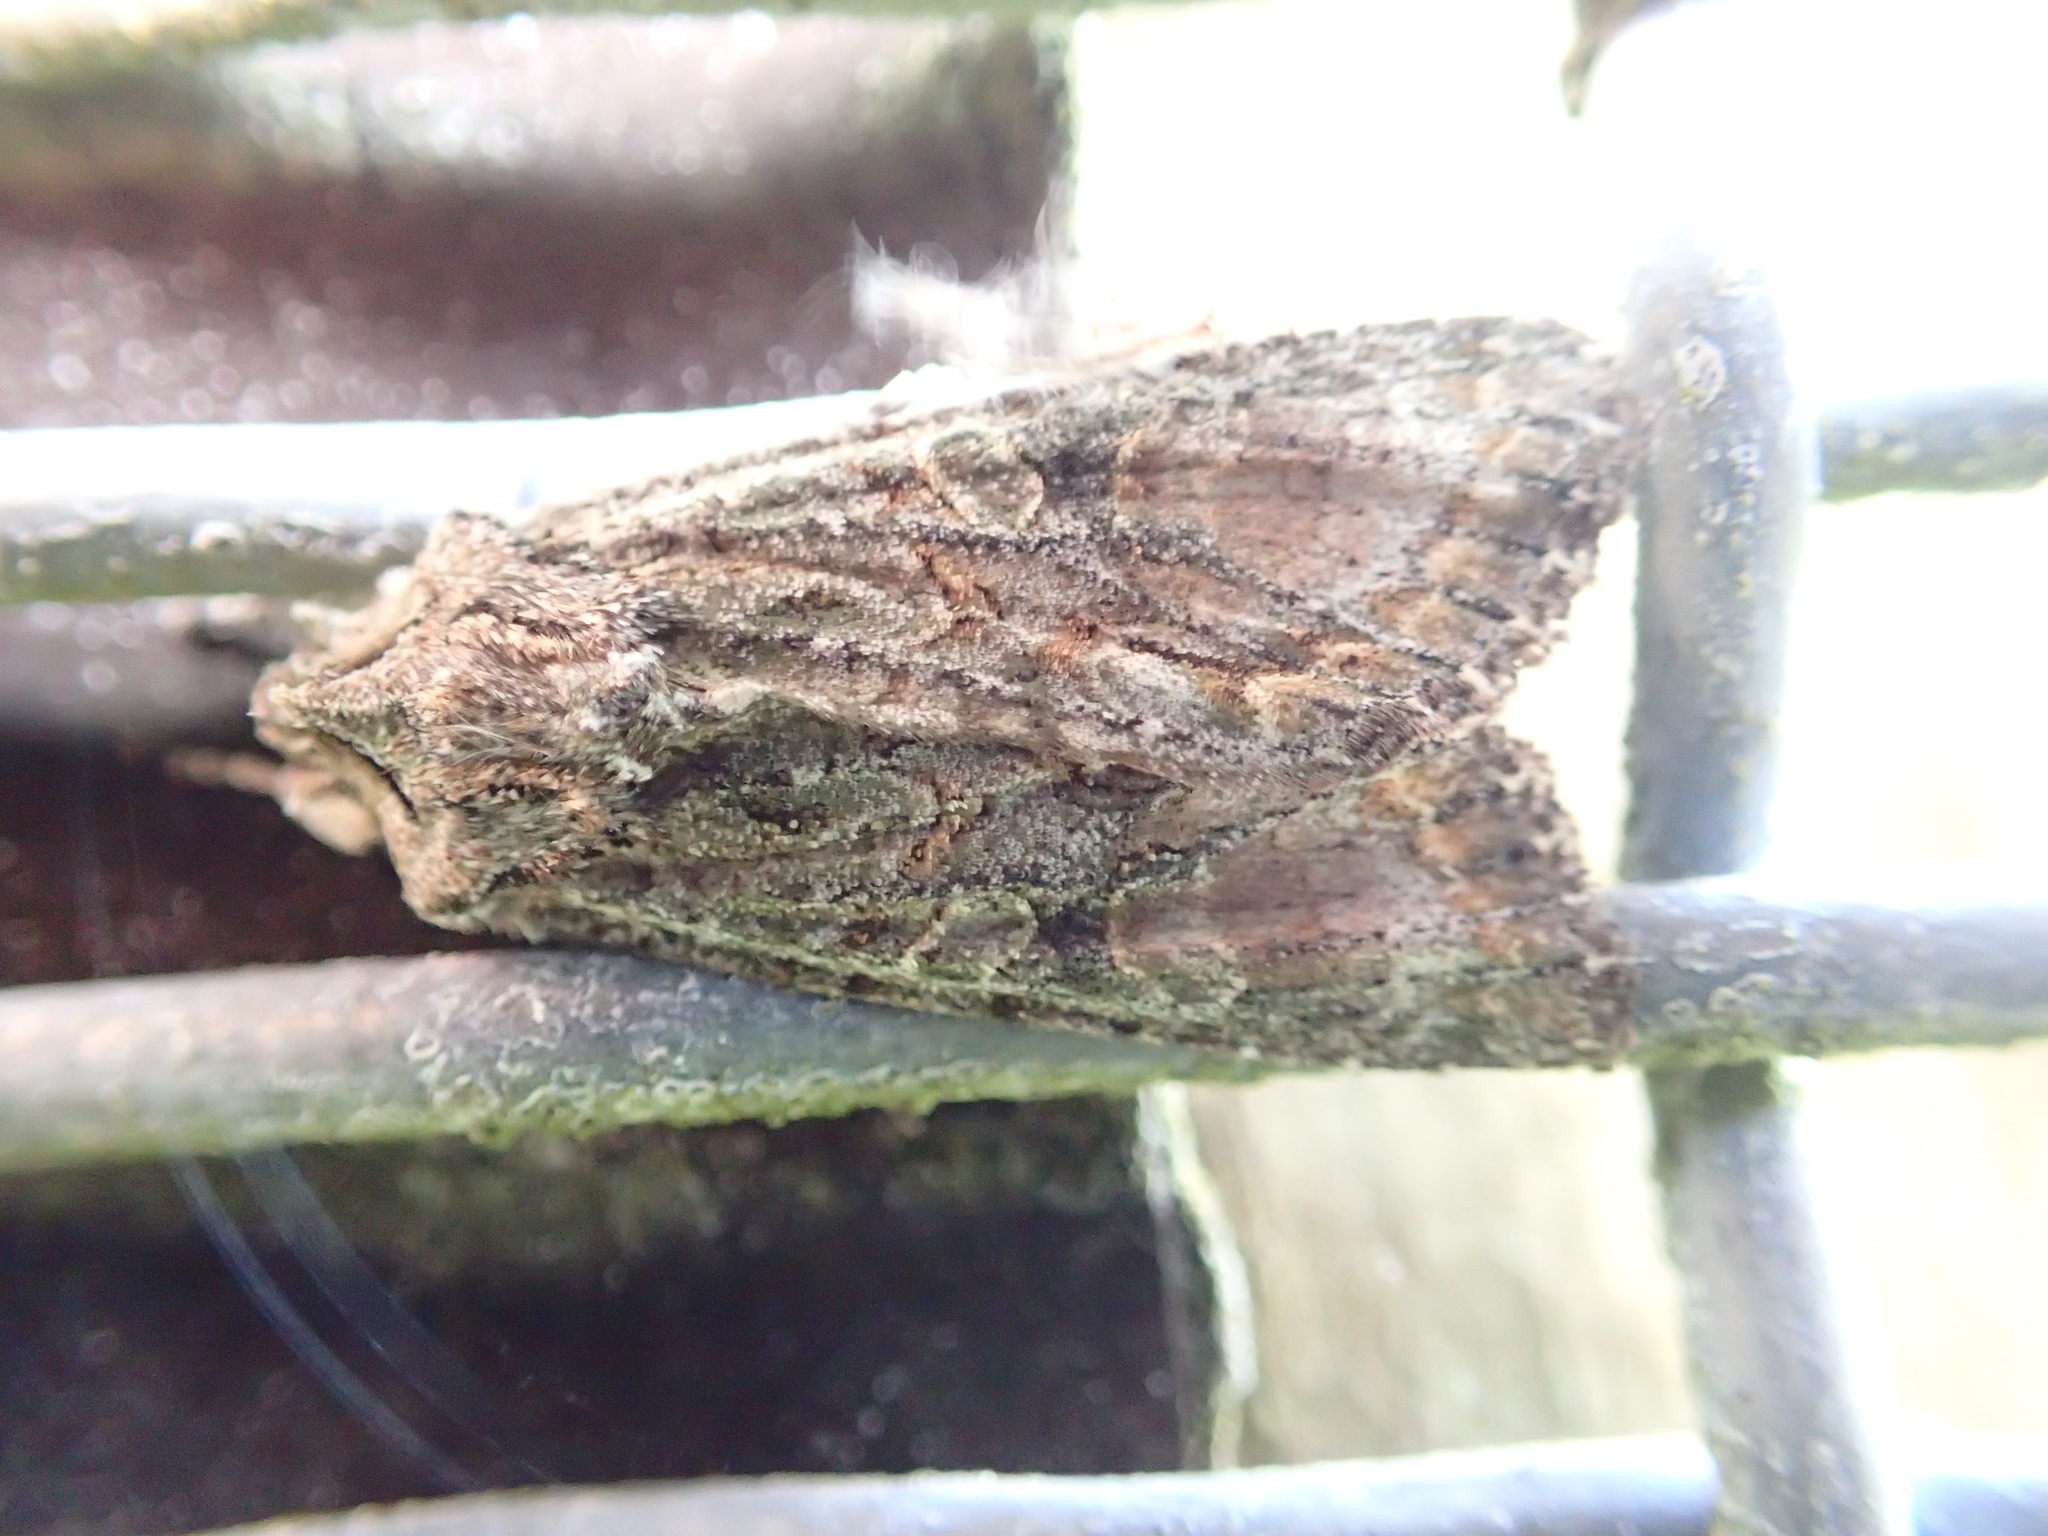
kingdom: Animalia
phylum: Arthropoda
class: Insecta
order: Lepidoptera
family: Noctuidae
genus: Ichneutica
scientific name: Ichneutica mutans
